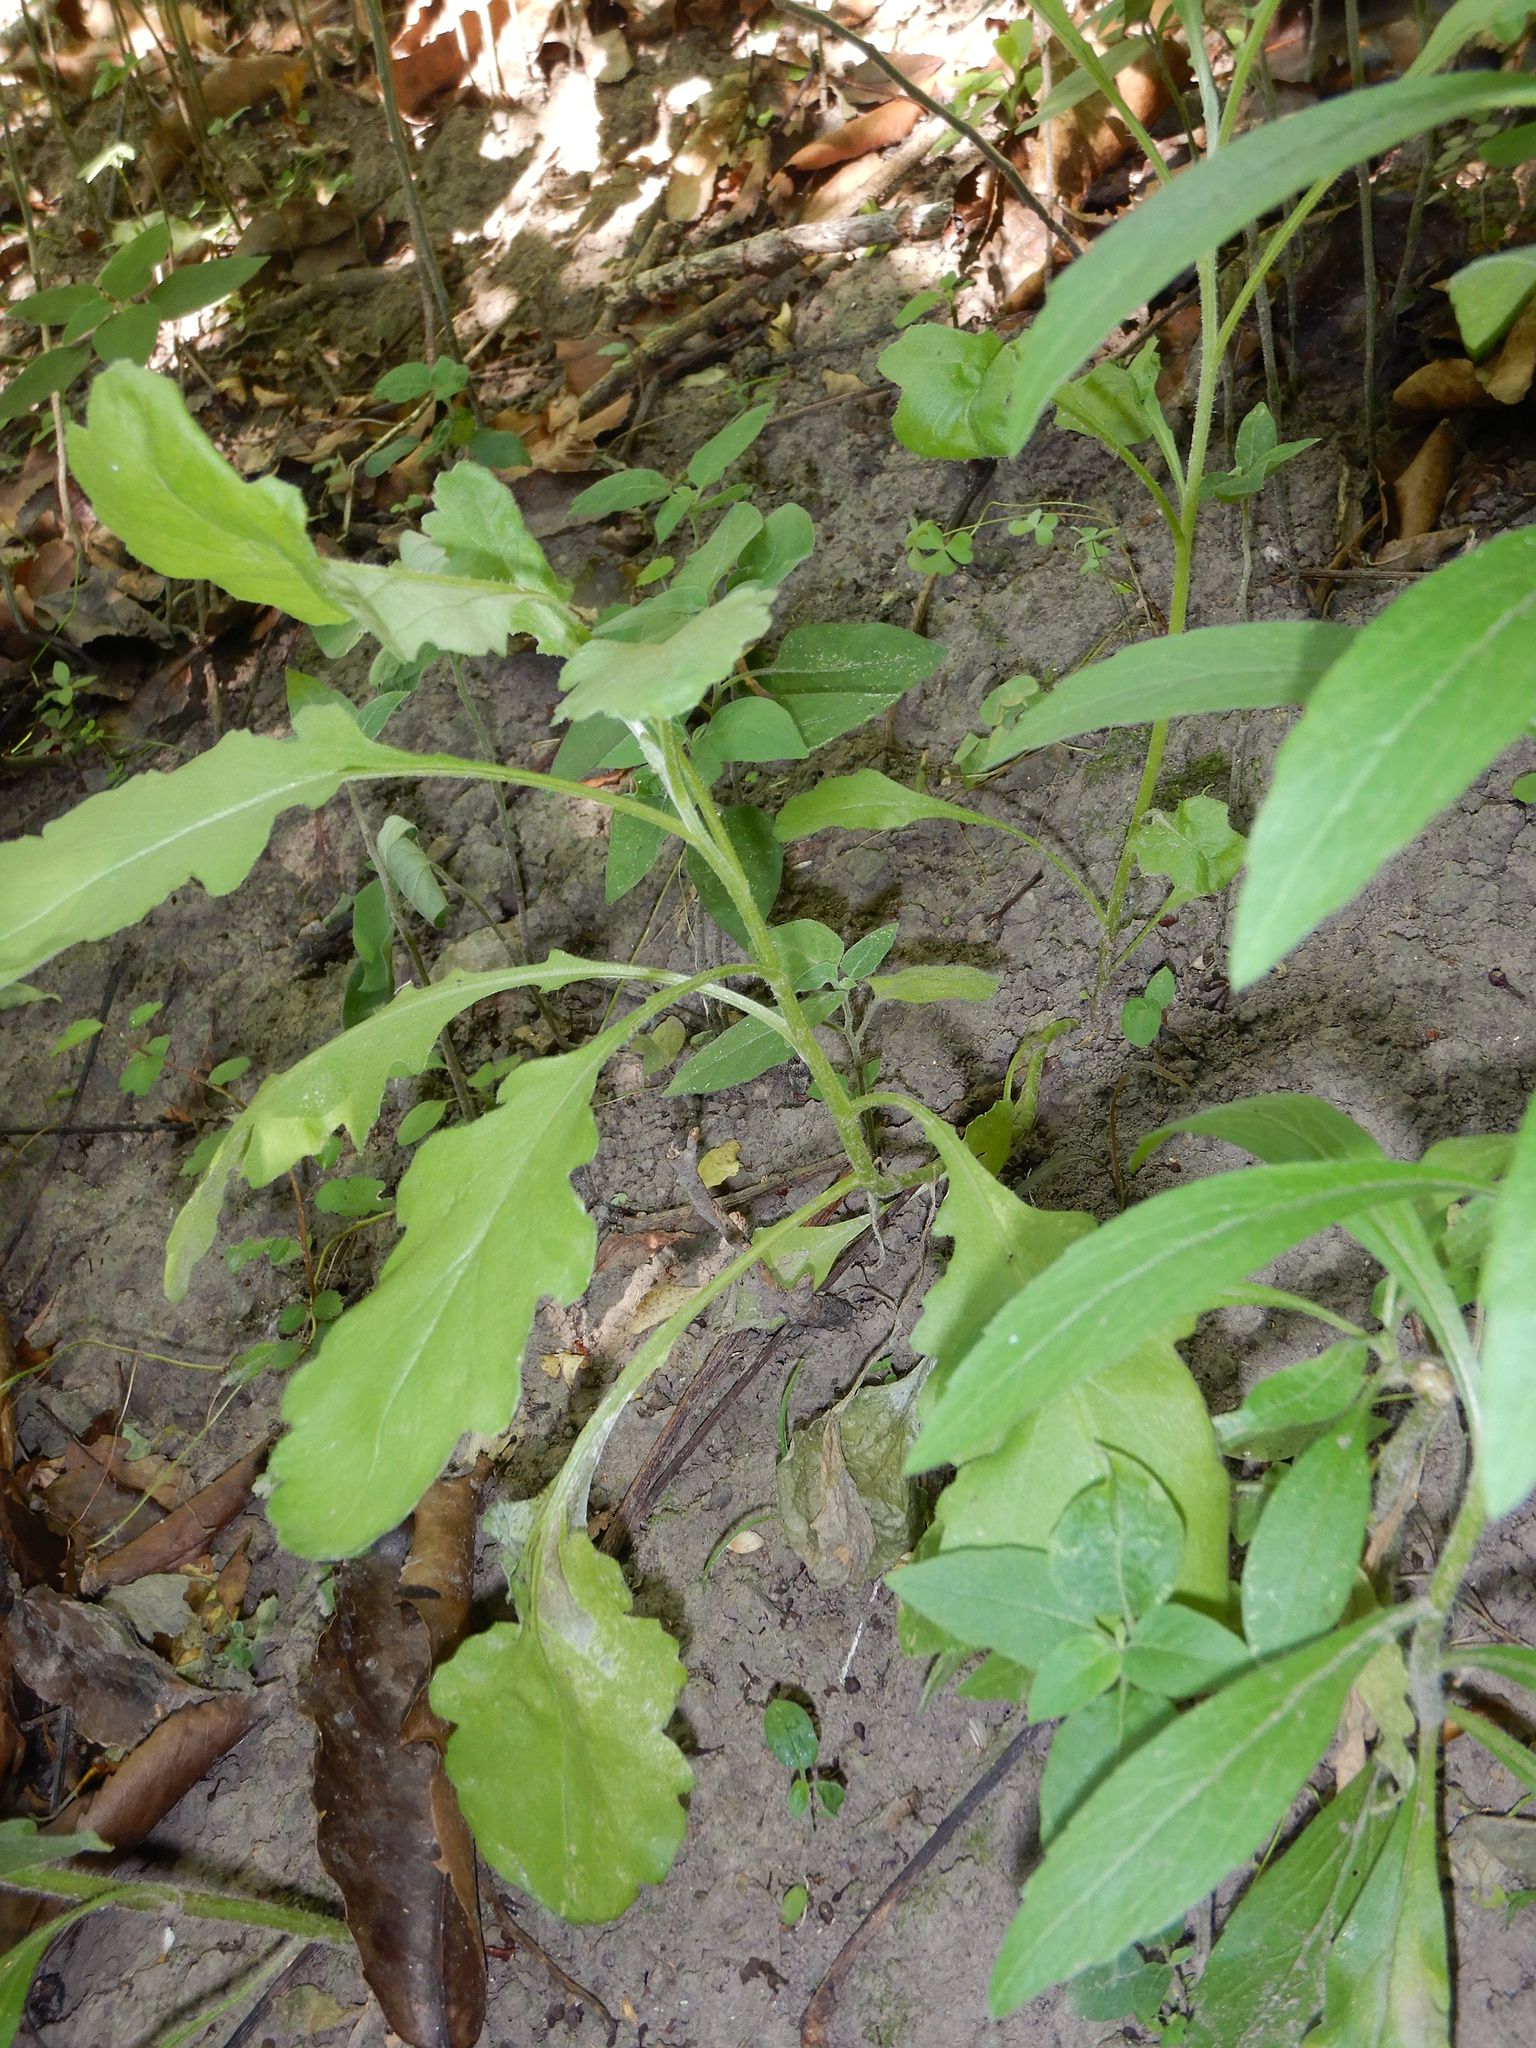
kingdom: Plantae
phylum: Tracheophyta
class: Magnoliopsida
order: Asterales
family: Asteraceae
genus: Senecio
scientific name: Senecio glomeratus
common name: Cutleaf burnweed
